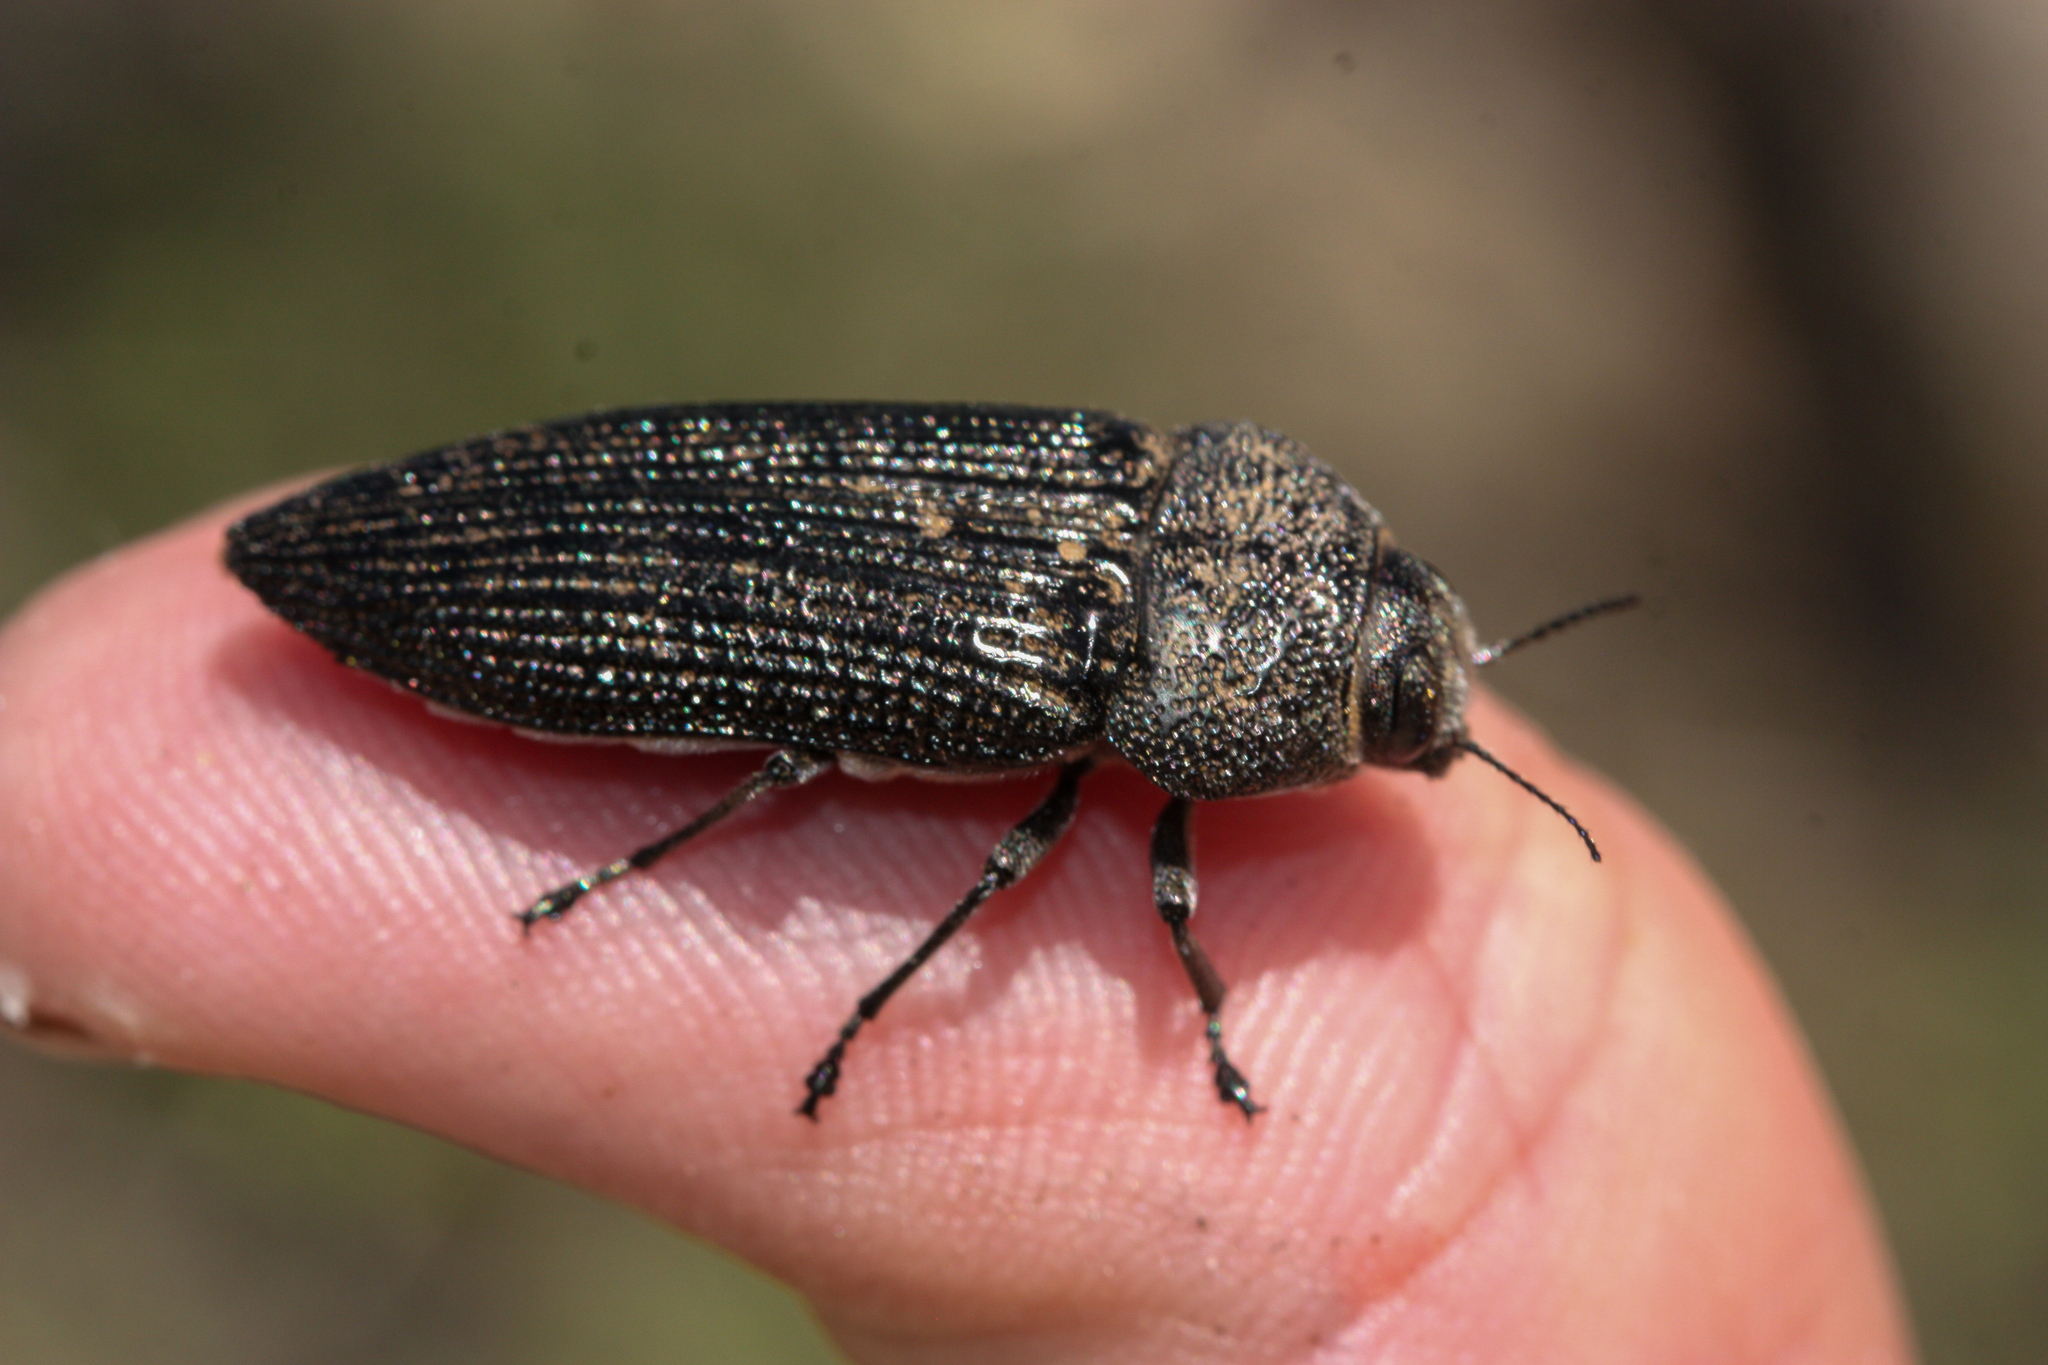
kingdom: Animalia
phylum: Arthropoda
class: Insecta
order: Coleoptera
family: Buprestidae
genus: Polycesta
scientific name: Polycesta aruensis
